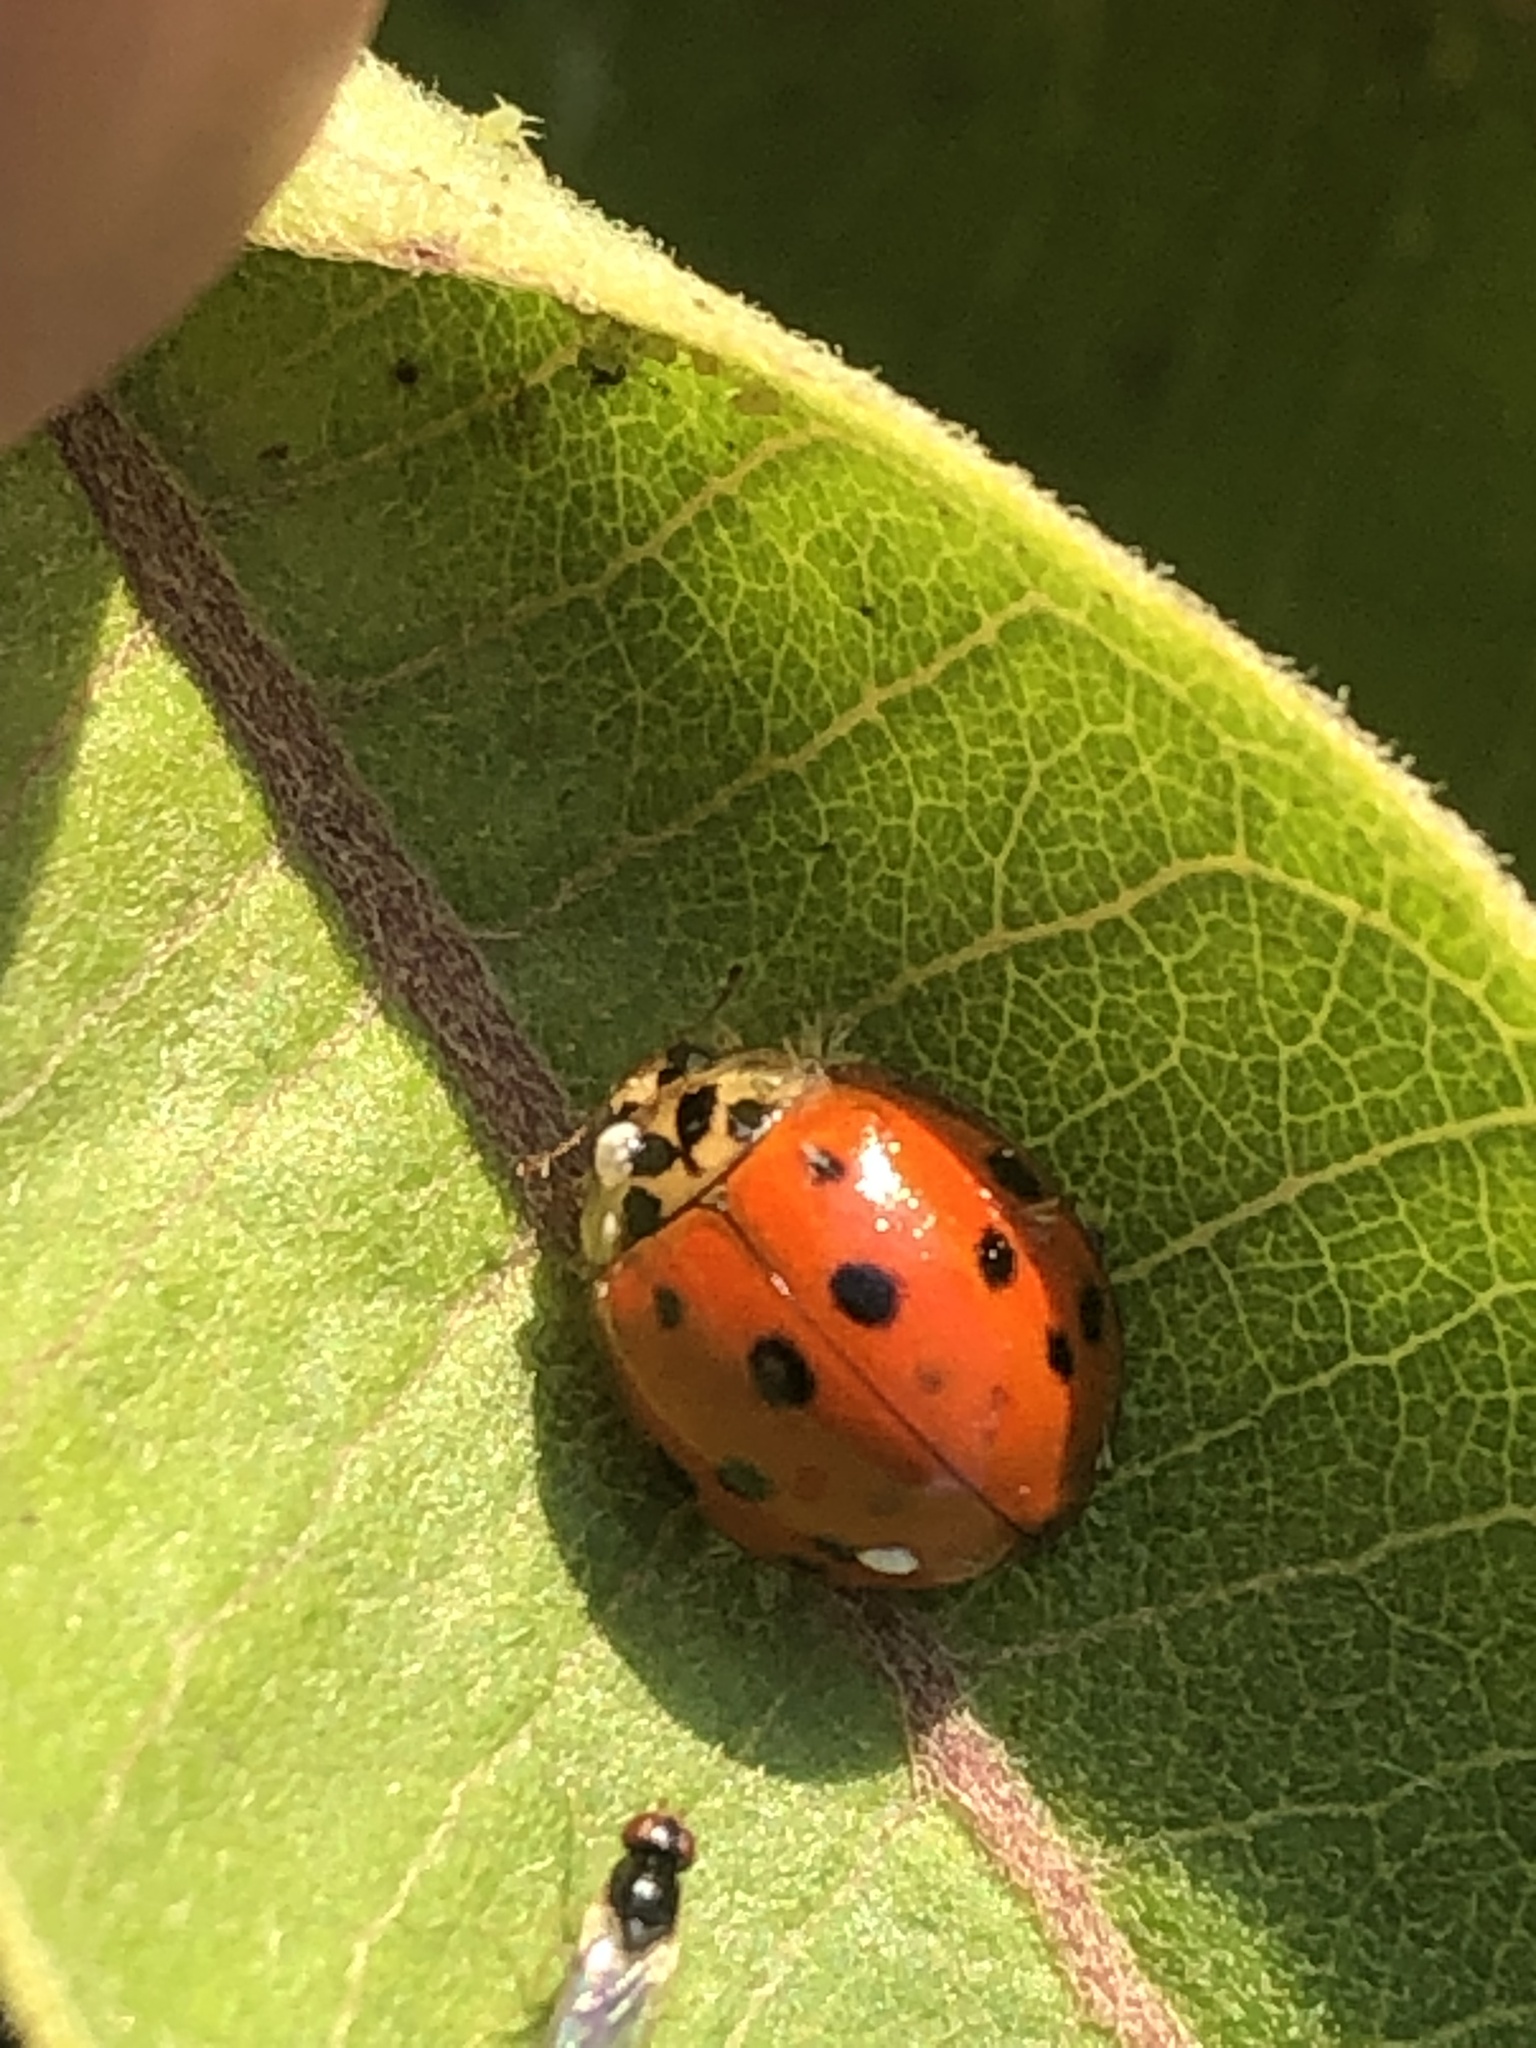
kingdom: Animalia
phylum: Arthropoda
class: Insecta
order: Coleoptera
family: Coccinellidae
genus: Harmonia
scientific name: Harmonia axyridis
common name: Harlequin ladybird
